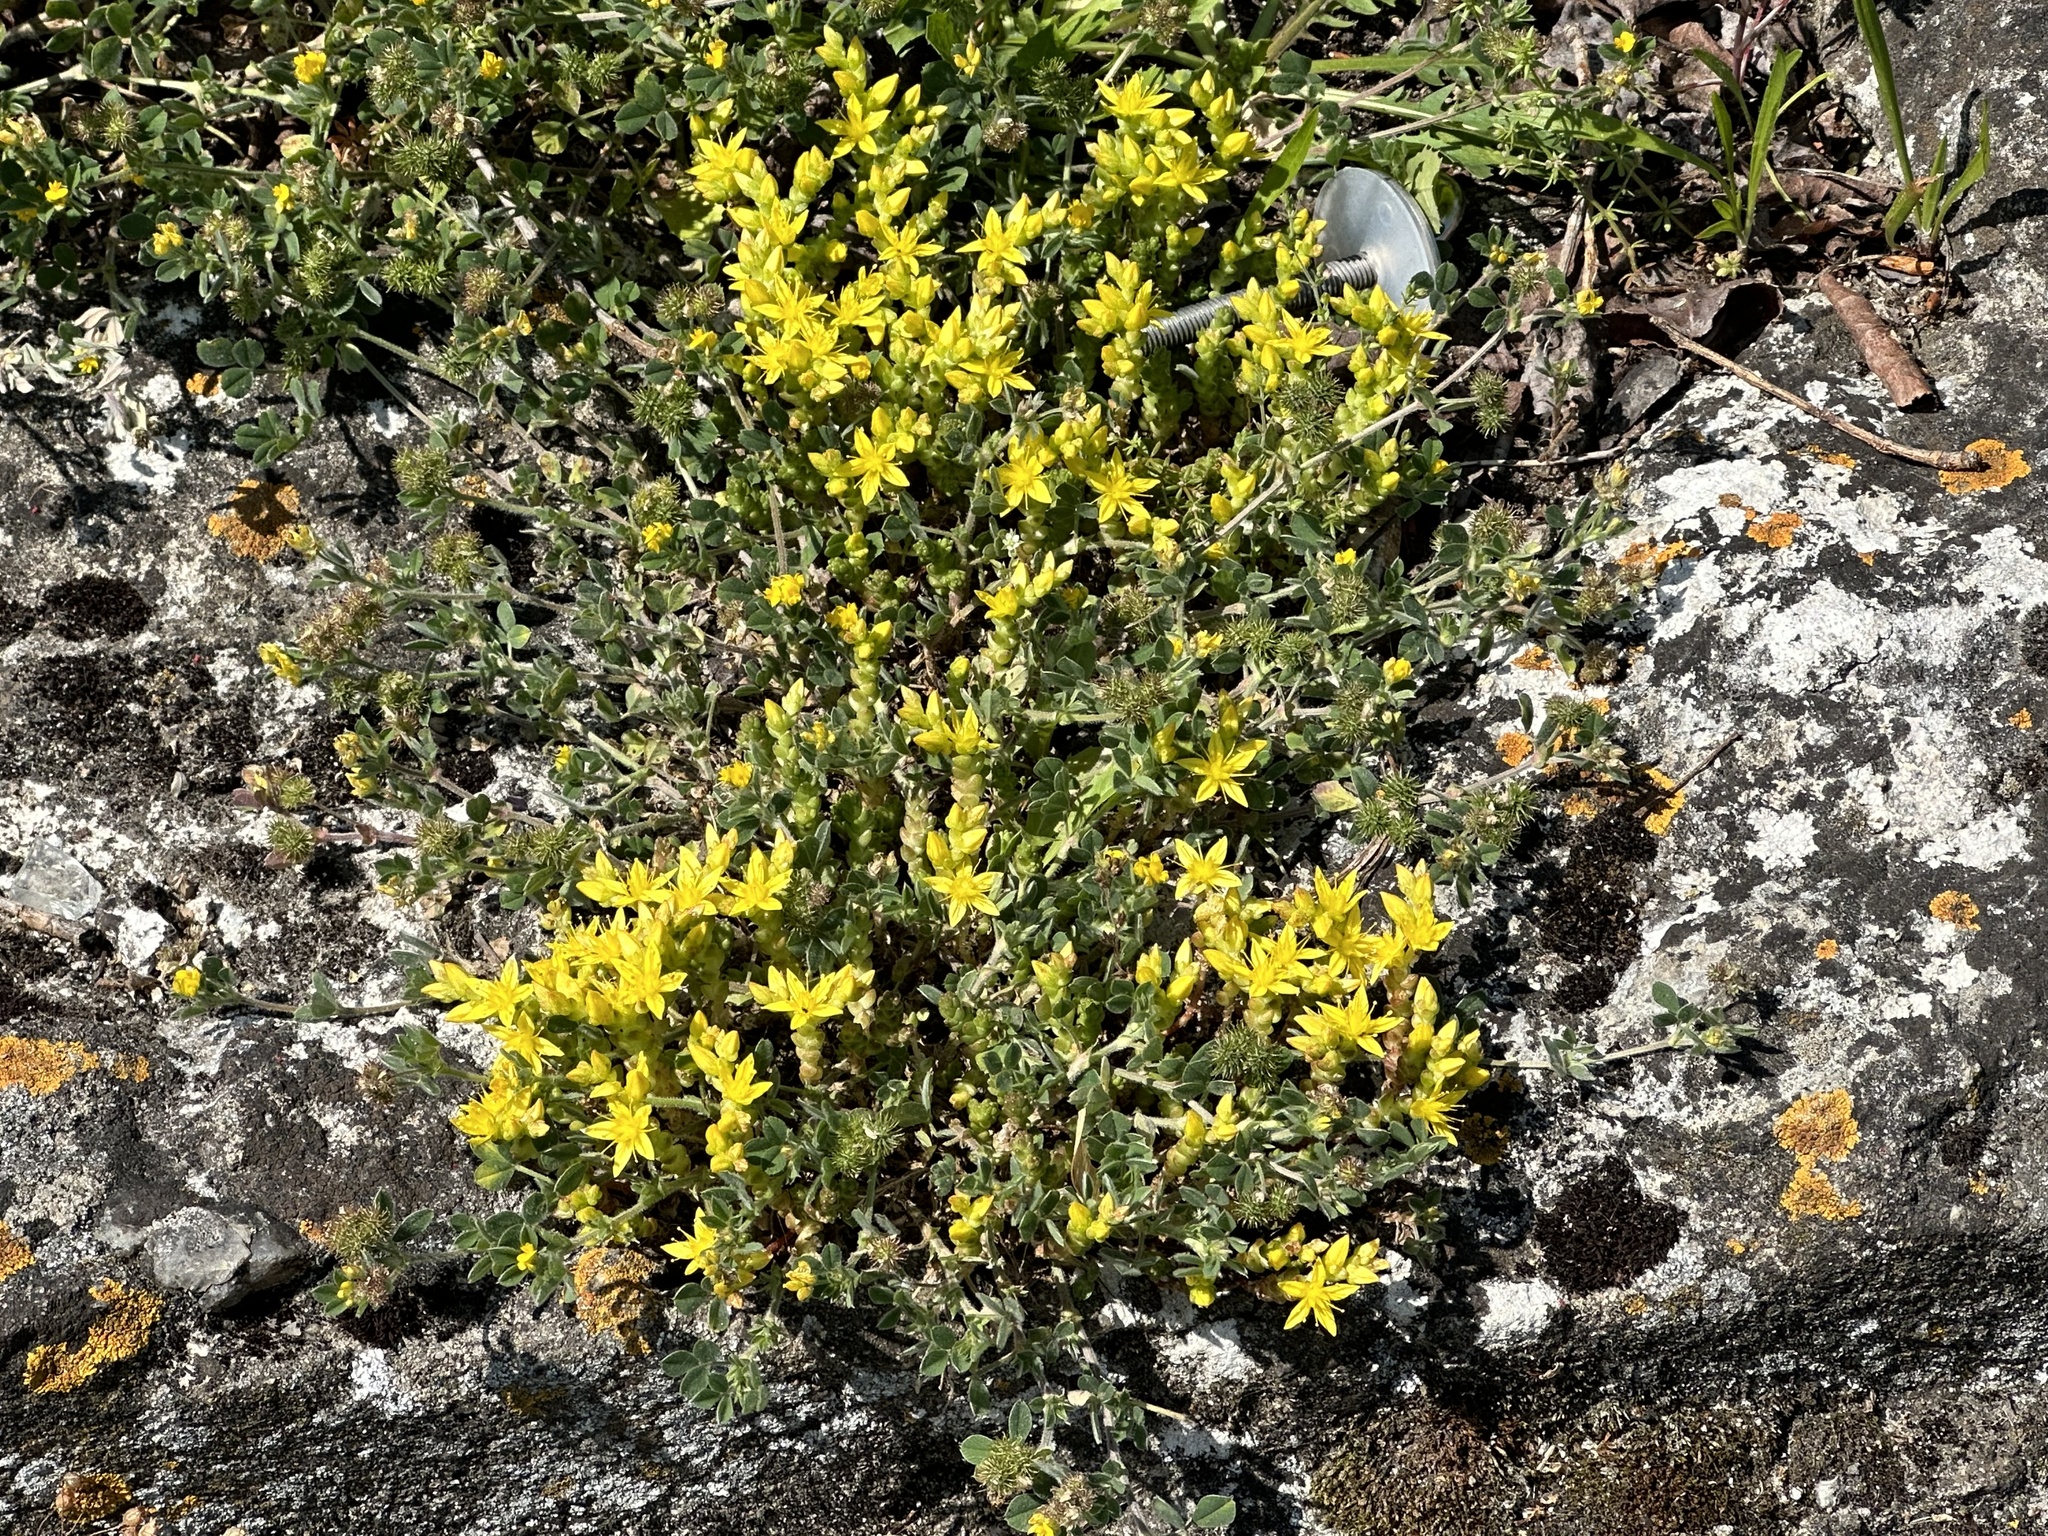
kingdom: Plantae
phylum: Tracheophyta
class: Magnoliopsida
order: Saxifragales
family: Crassulaceae
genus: Sedum
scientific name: Sedum acre
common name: Biting stonecrop
